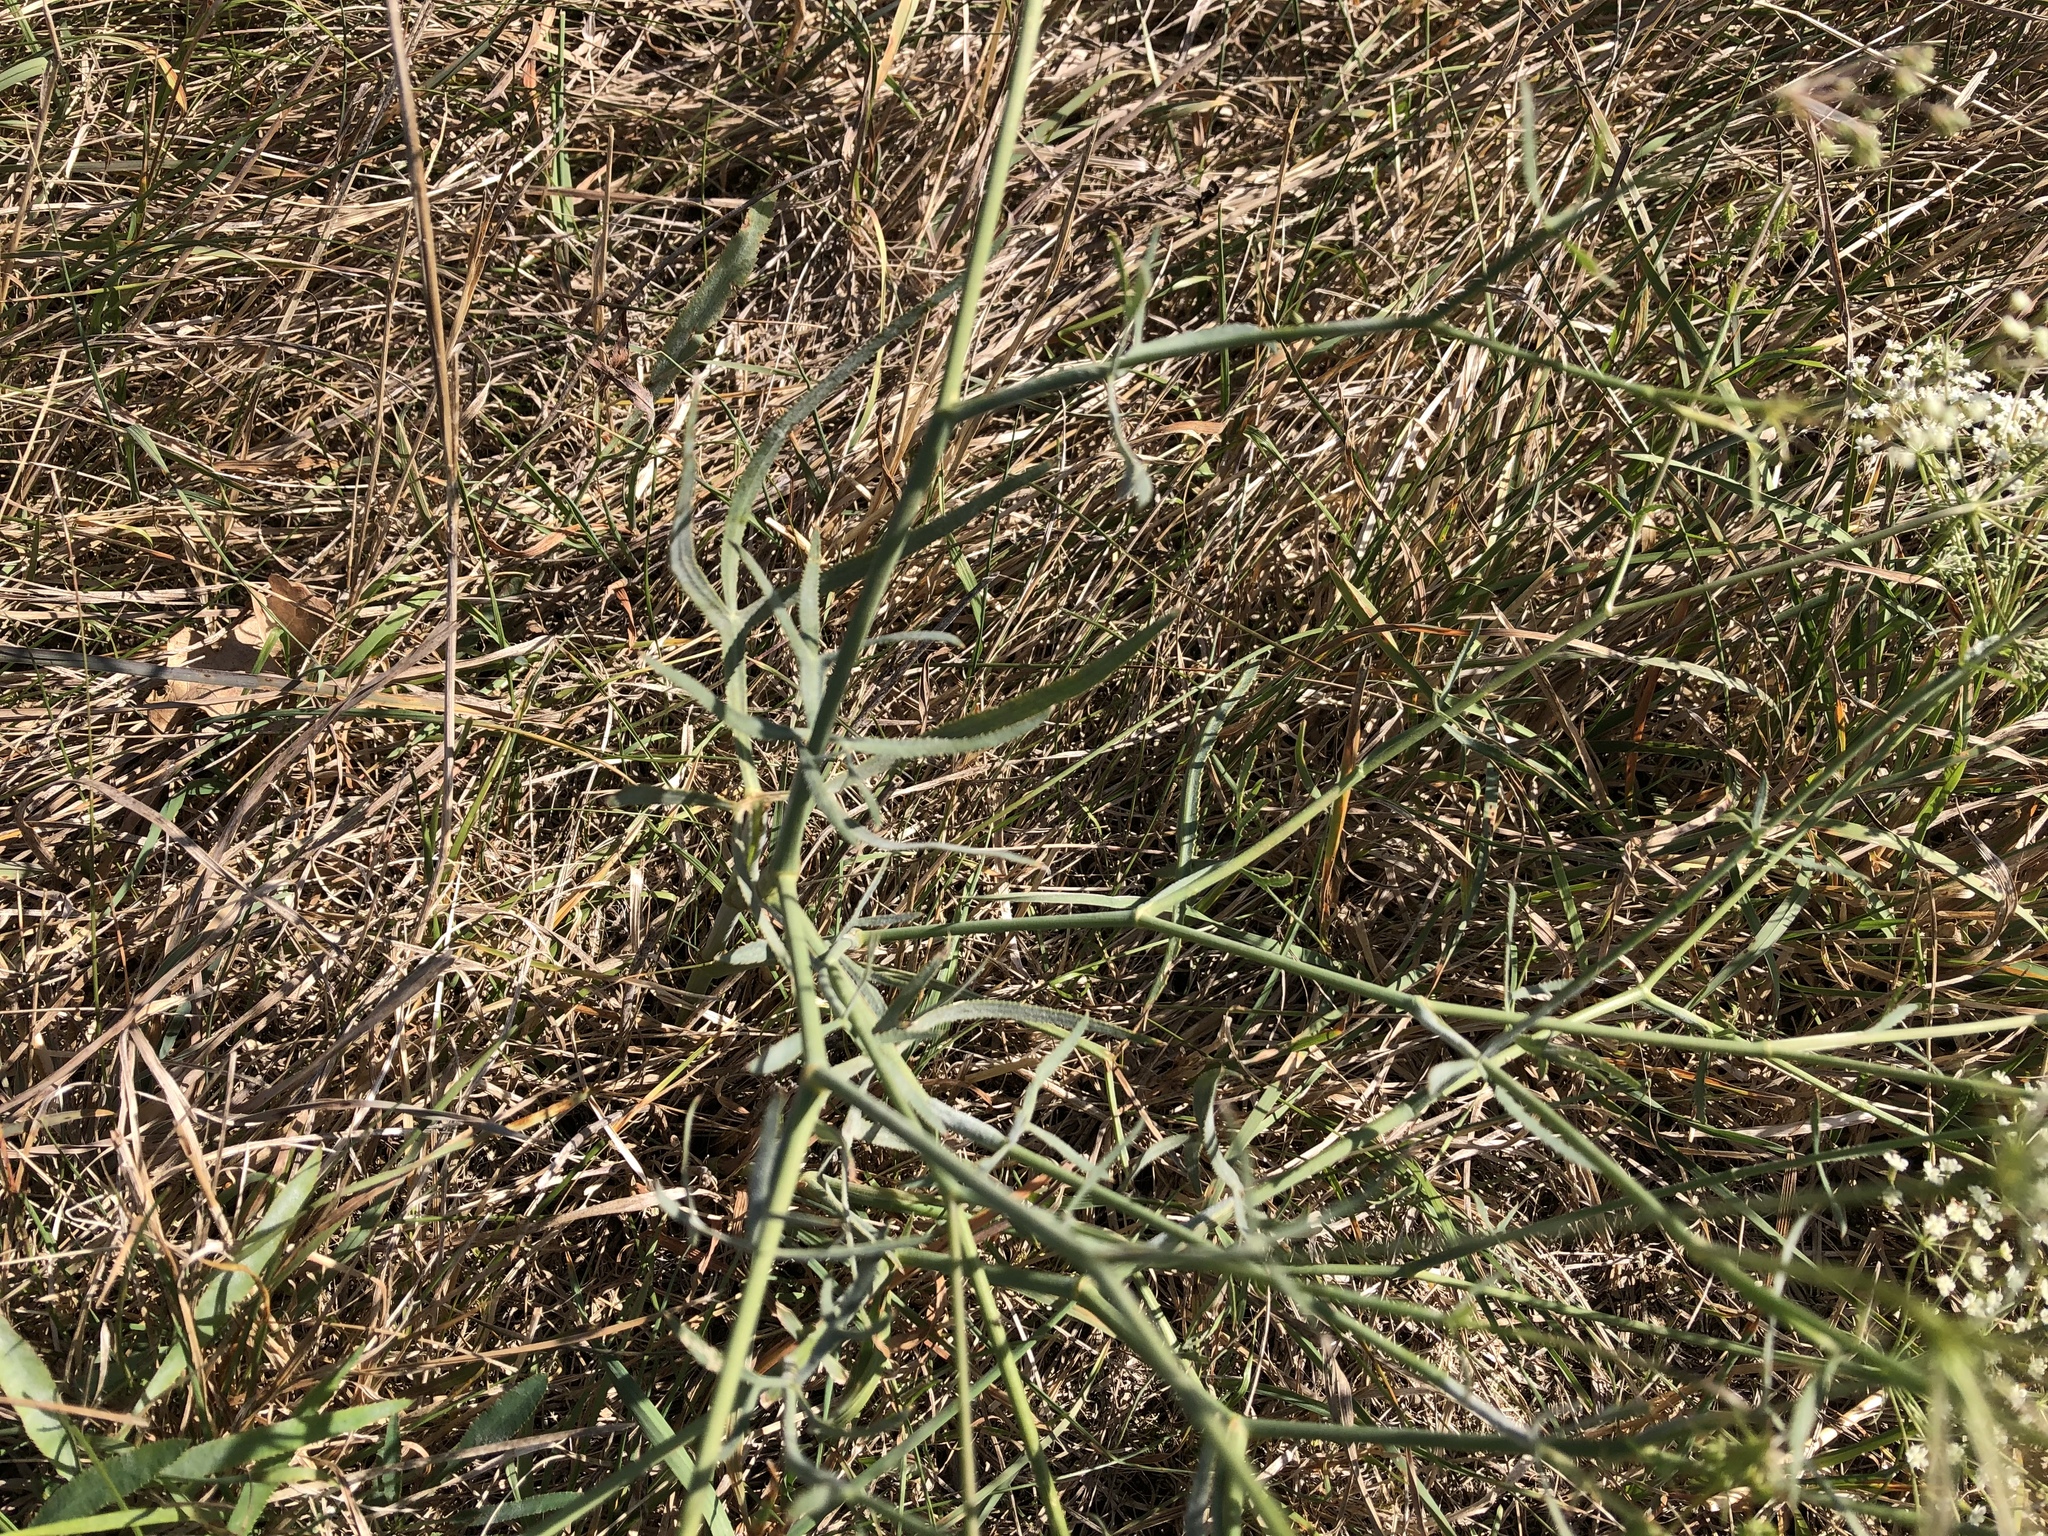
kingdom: Plantae
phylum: Tracheophyta
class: Magnoliopsida
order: Apiales
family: Apiaceae
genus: Falcaria
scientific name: Falcaria vulgaris
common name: Longleaf
